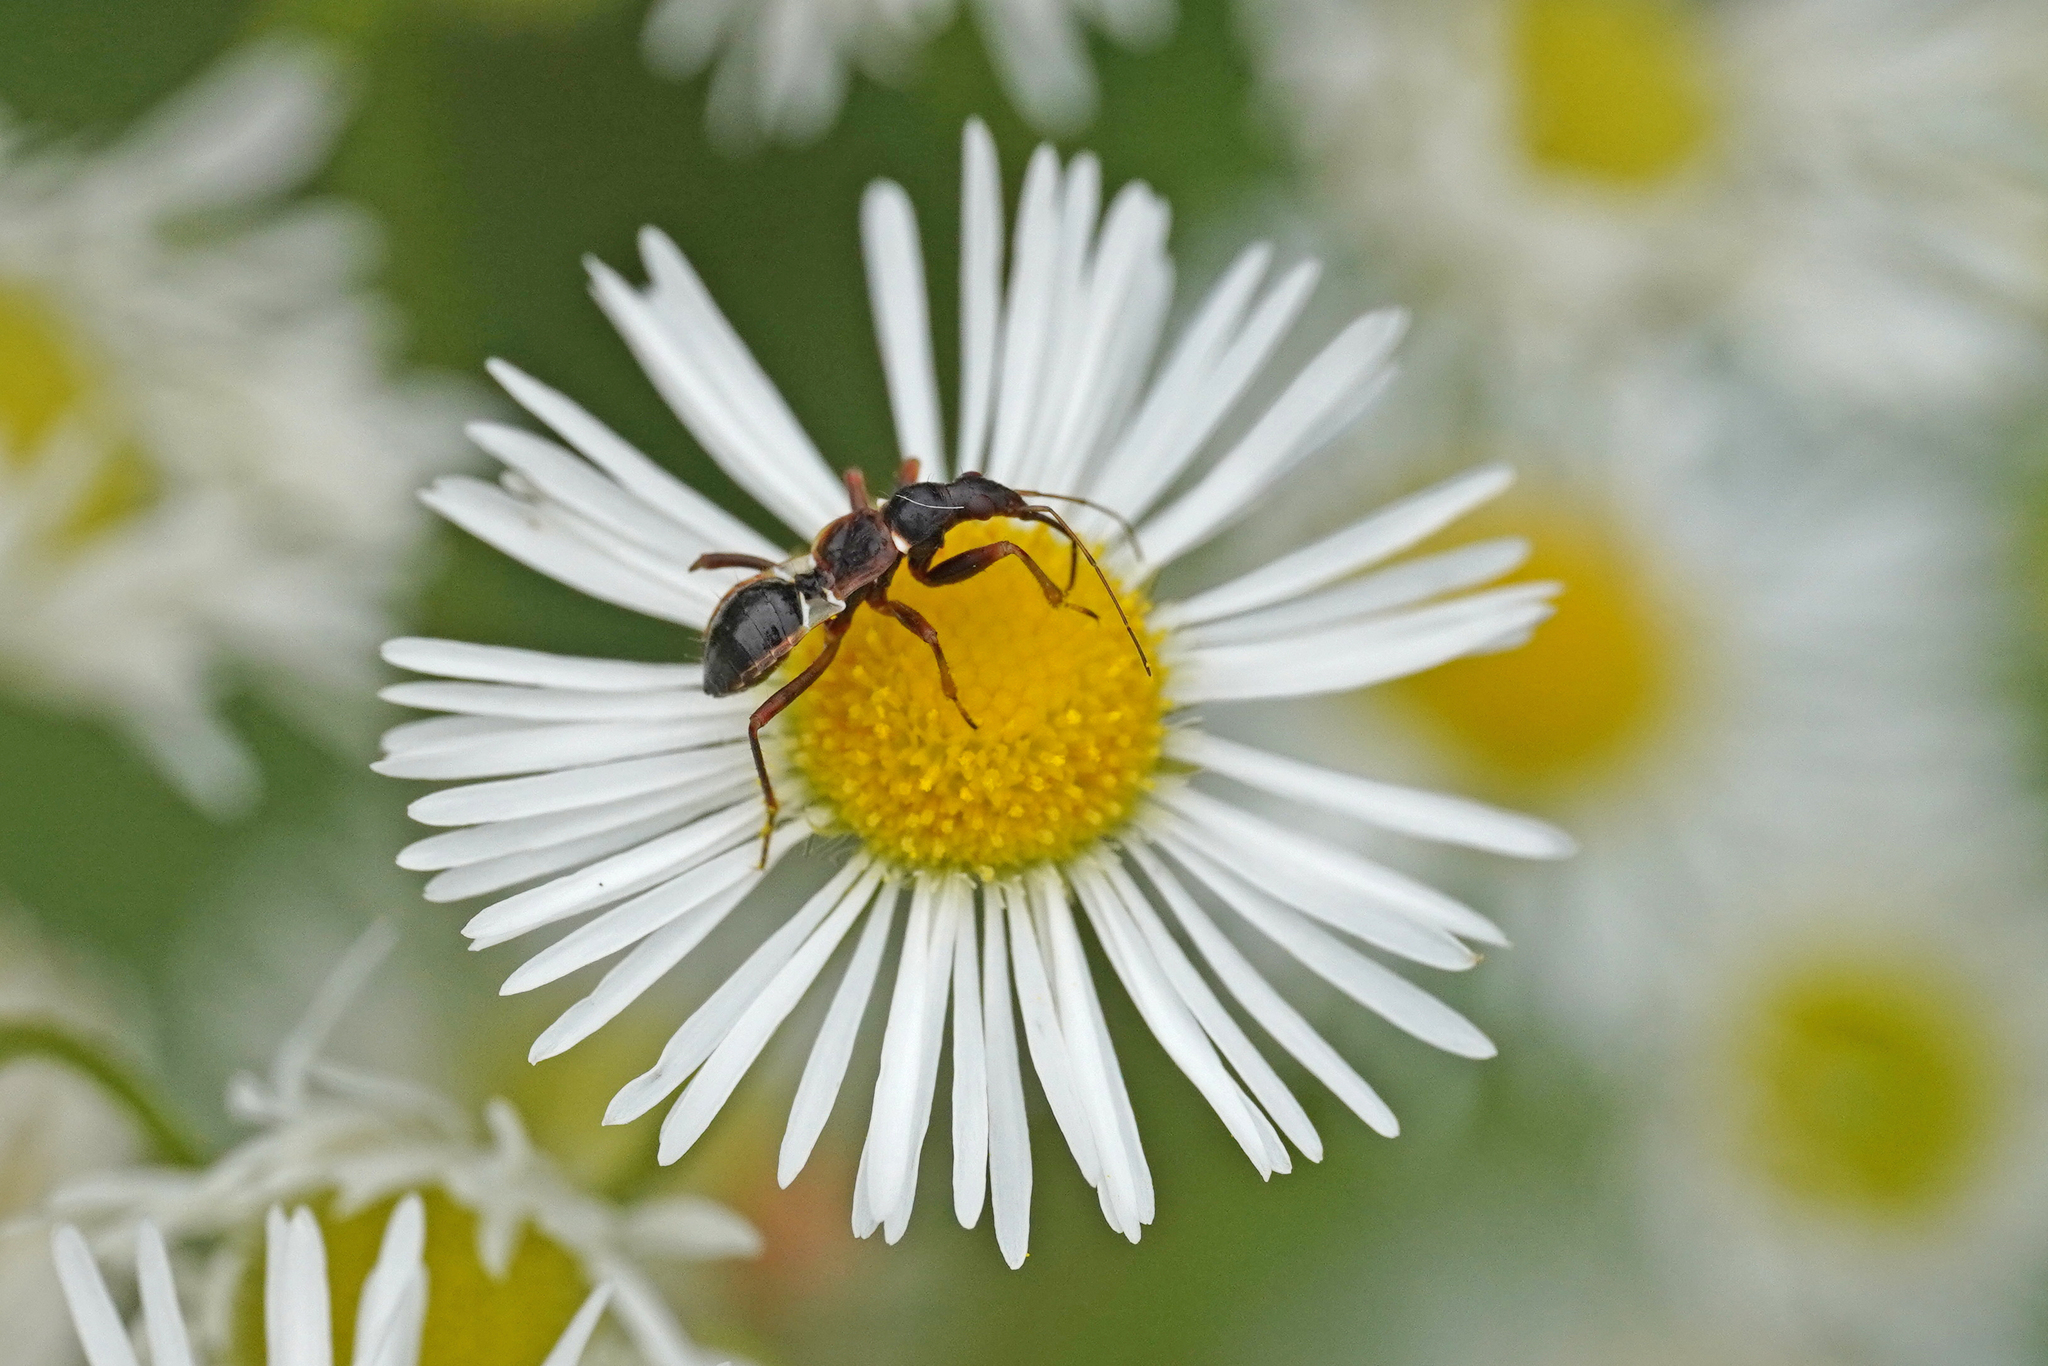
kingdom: Animalia
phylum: Arthropoda
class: Insecta
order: Hemiptera
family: Nabidae
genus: Himacerus
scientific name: Himacerus mirmicoides
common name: Ant damsel bug
